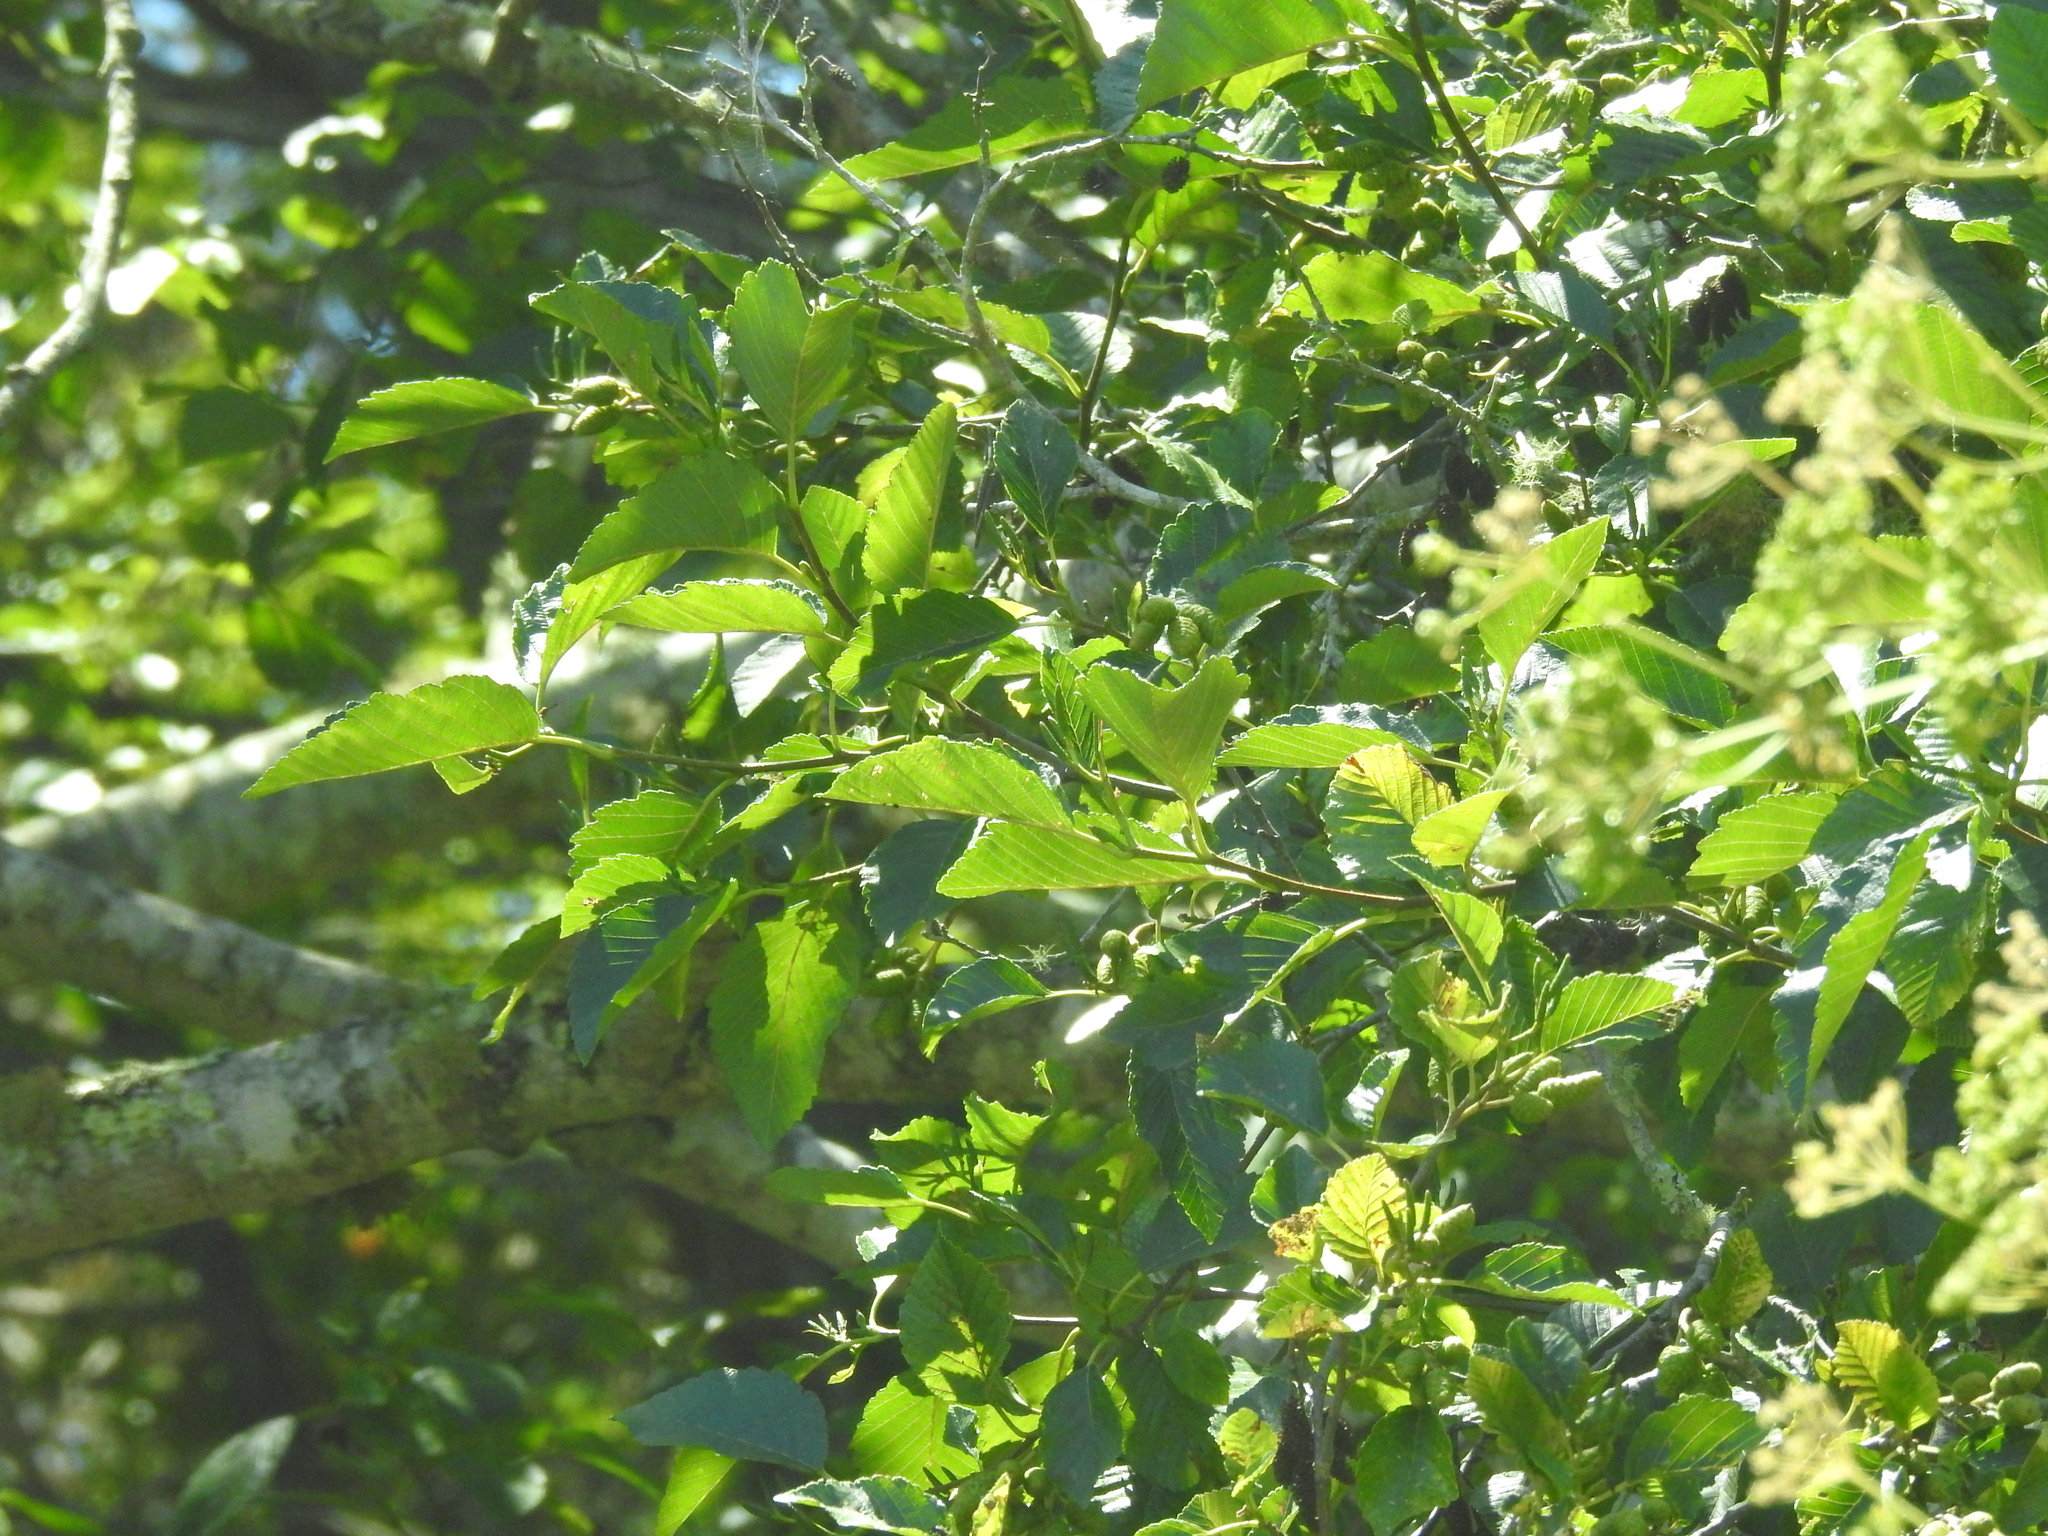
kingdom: Plantae
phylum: Tracheophyta
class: Magnoliopsida
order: Fagales
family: Betulaceae
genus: Alnus
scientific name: Alnus rubra
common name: Red alder
